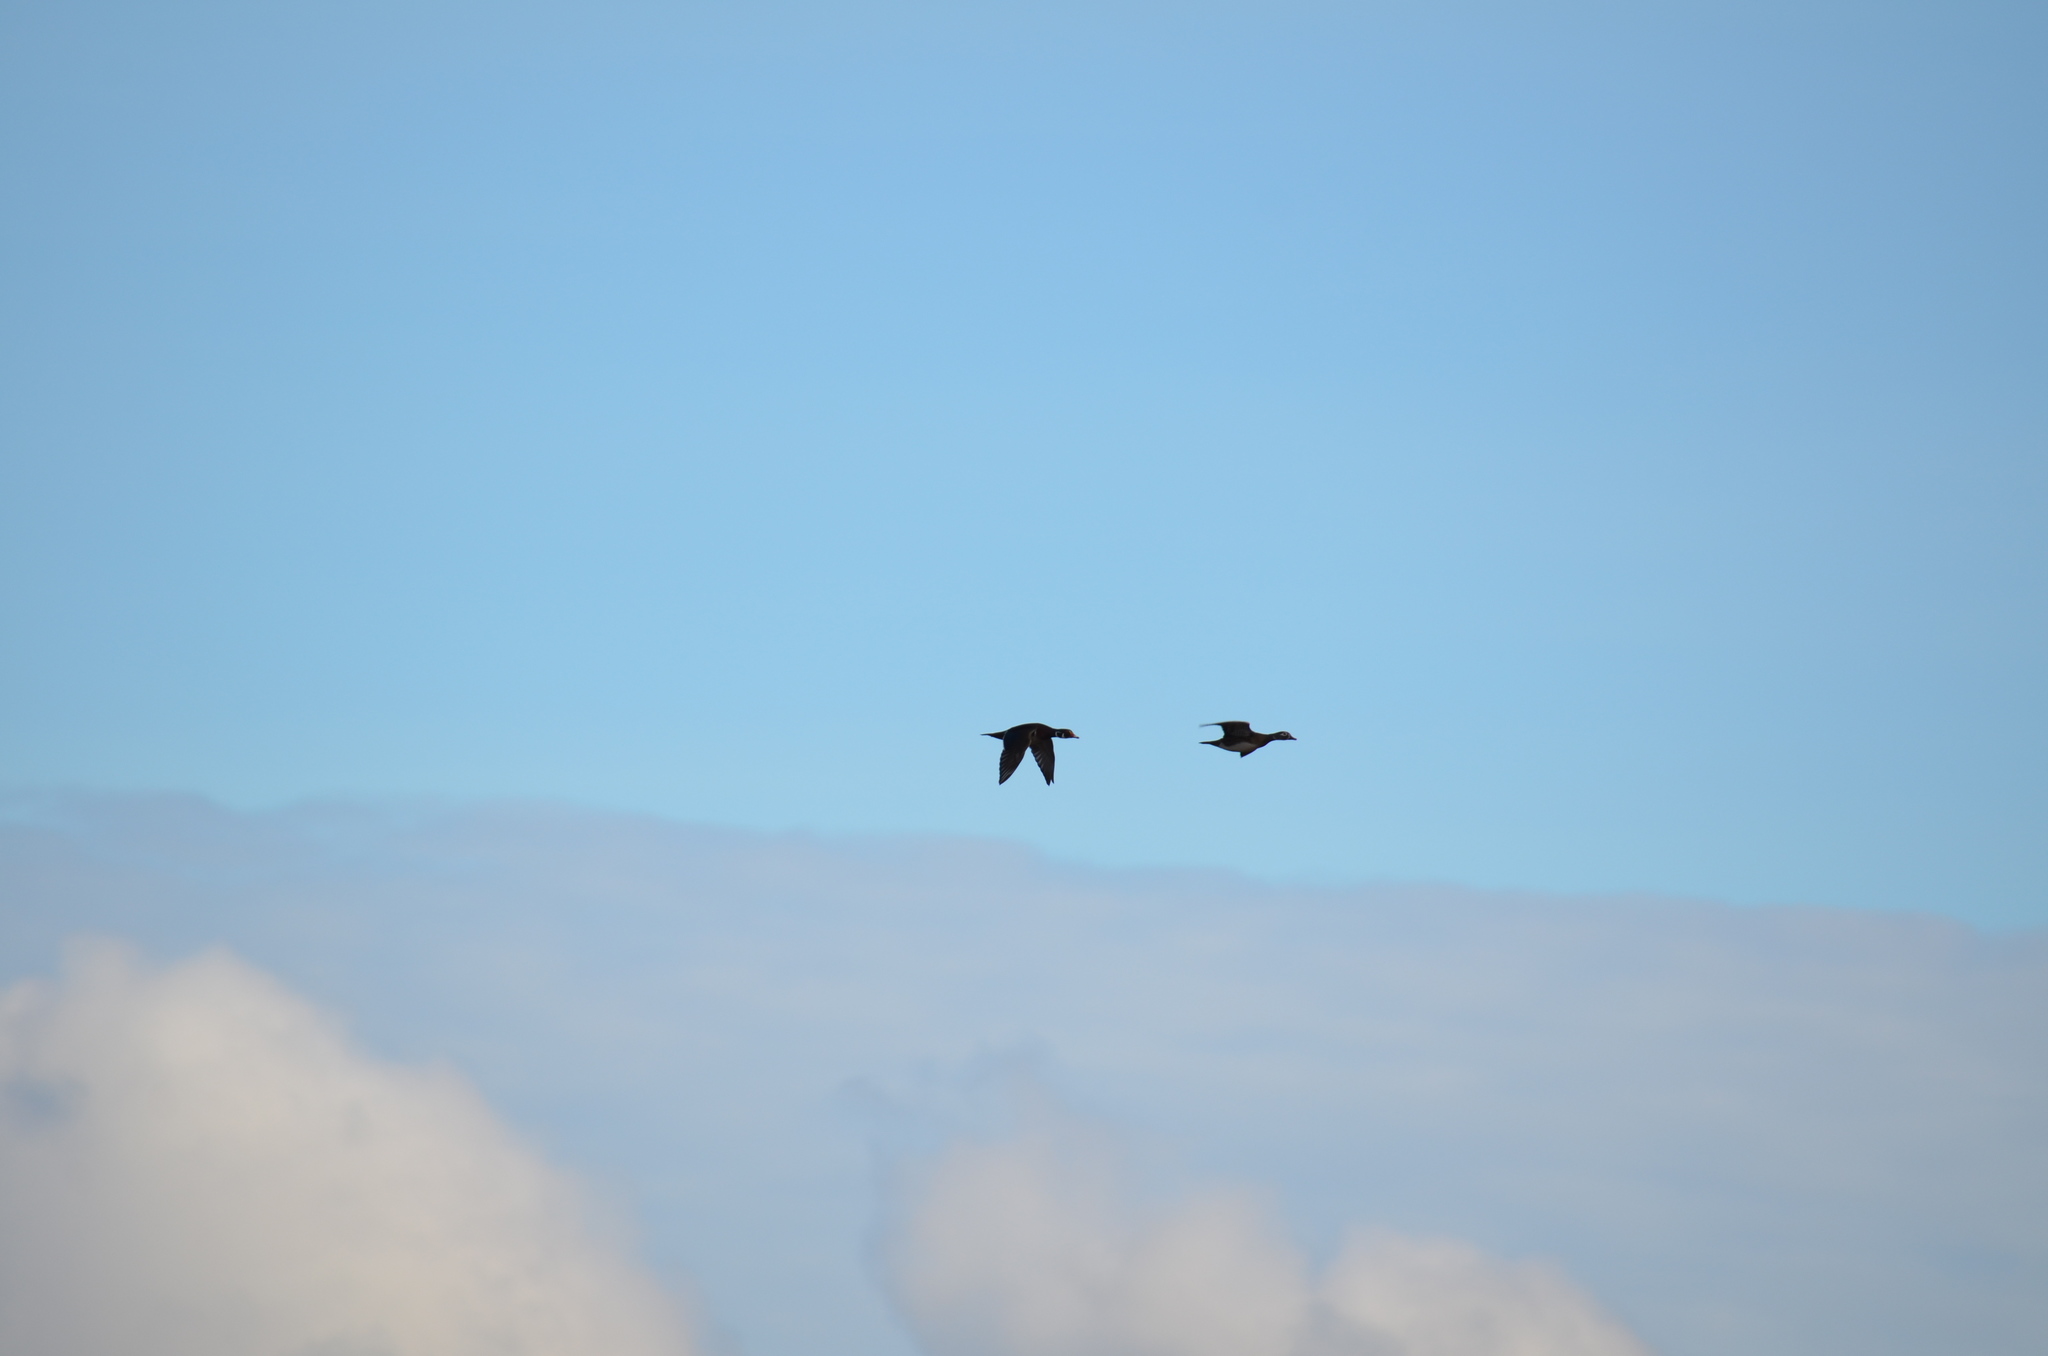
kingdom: Animalia
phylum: Chordata
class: Aves
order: Anseriformes
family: Anatidae
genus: Aix
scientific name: Aix sponsa
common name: Wood duck
